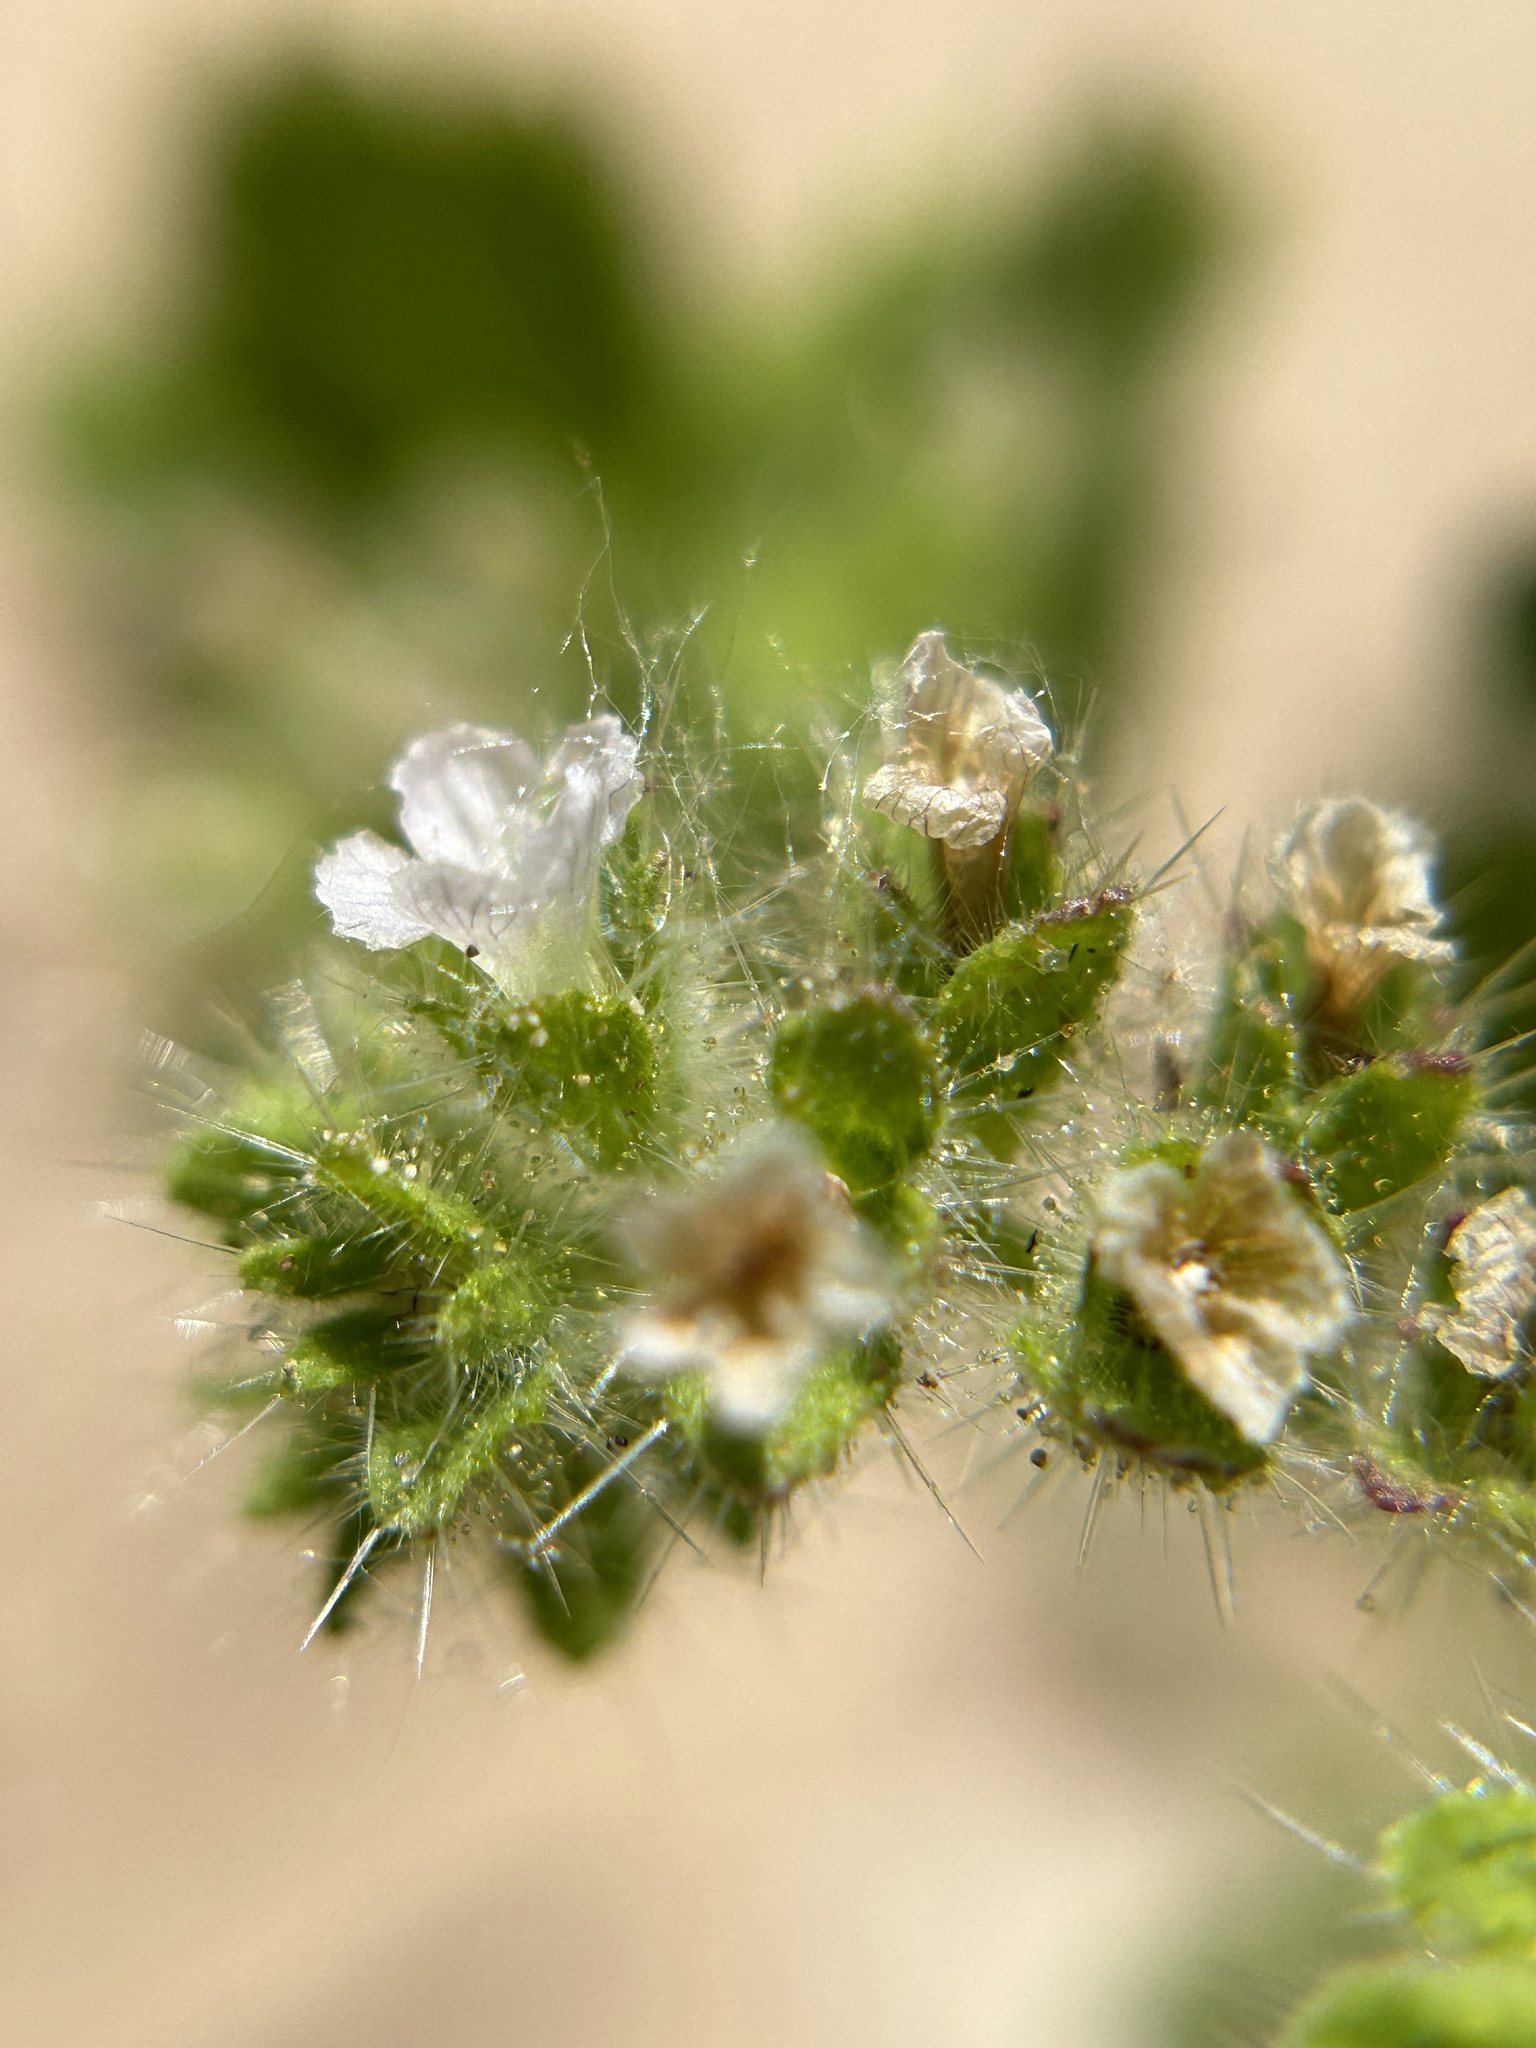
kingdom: Plantae
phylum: Tracheophyta
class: Magnoliopsida
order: Boraginales
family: Hydrophyllaceae
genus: Phacelia
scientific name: Phacelia rattanii
